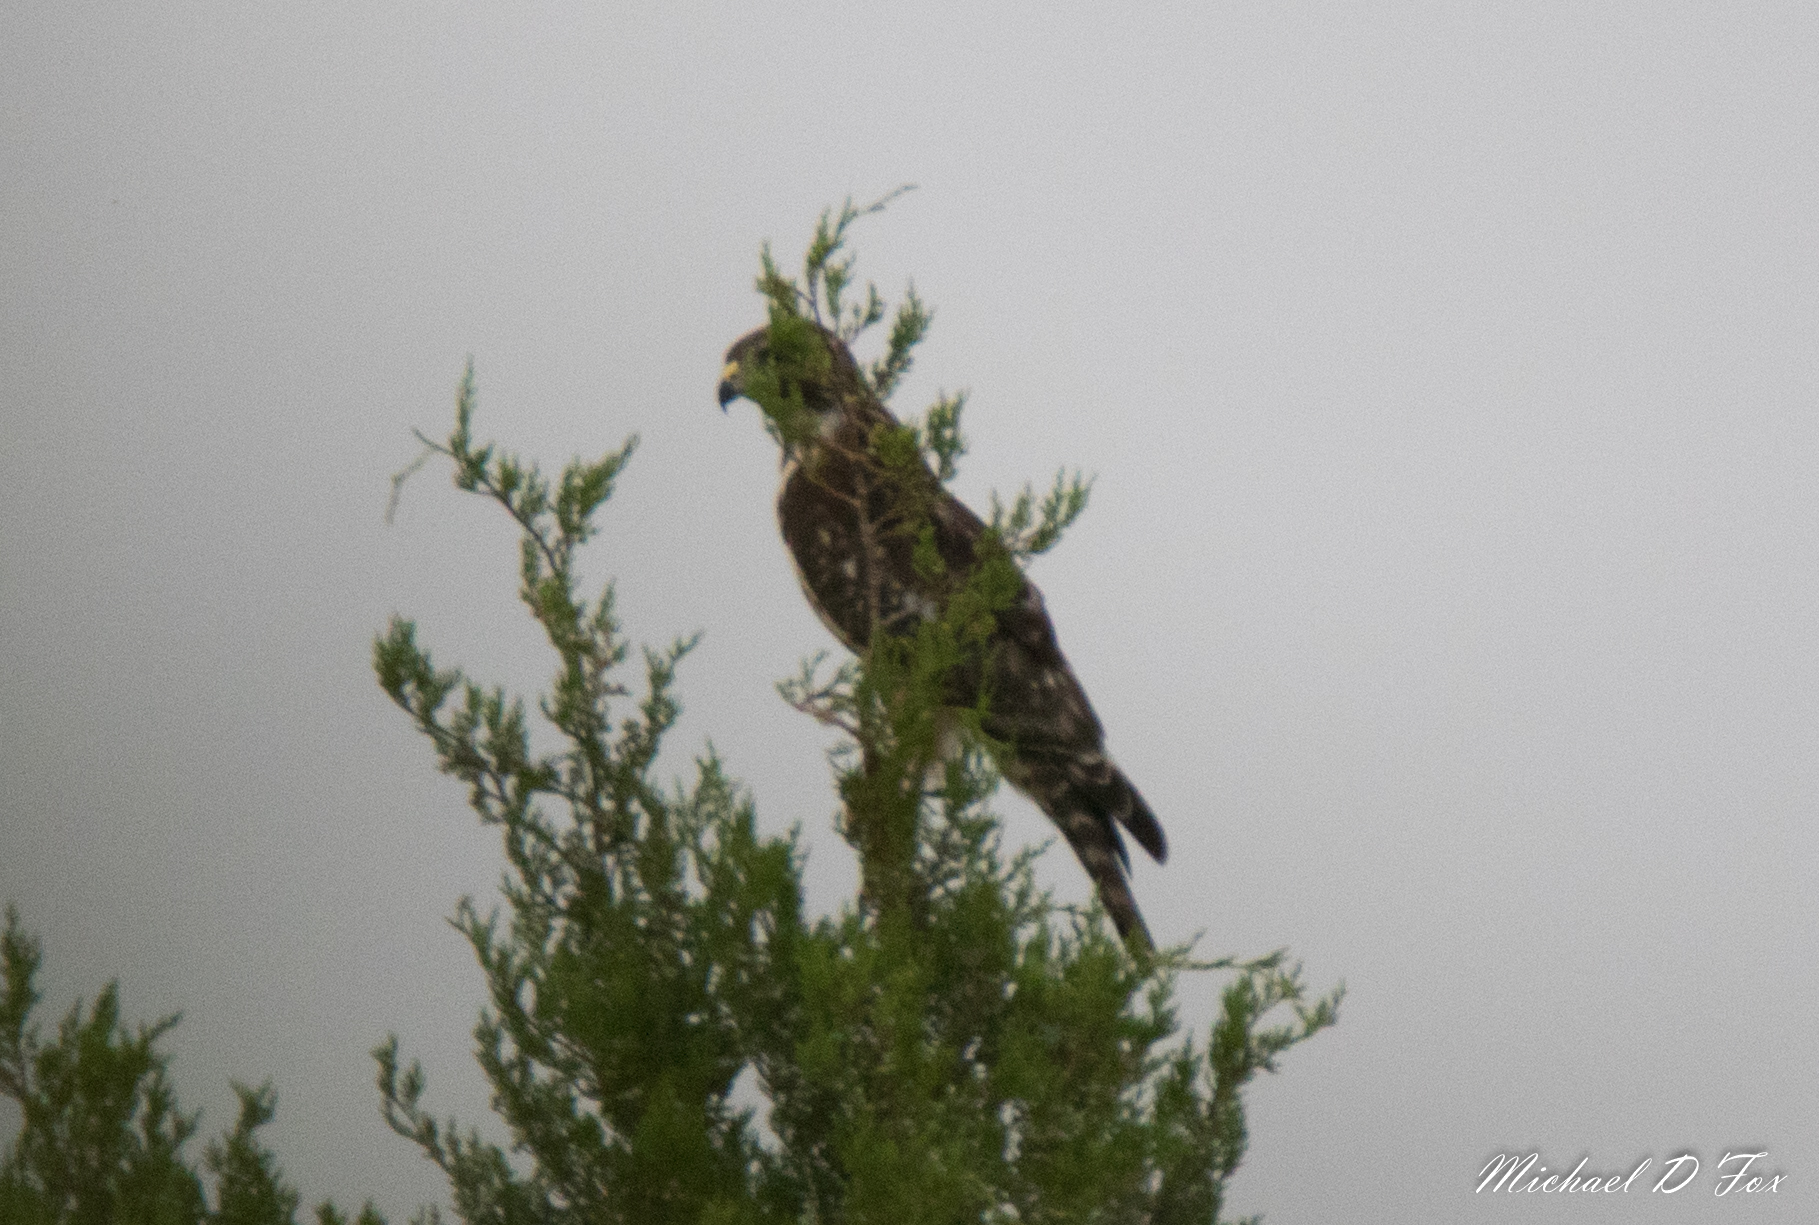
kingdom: Animalia
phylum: Chordata
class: Aves
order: Accipitriformes
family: Accipitridae
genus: Buteo
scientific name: Buteo lineatus
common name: Red-shouldered hawk
